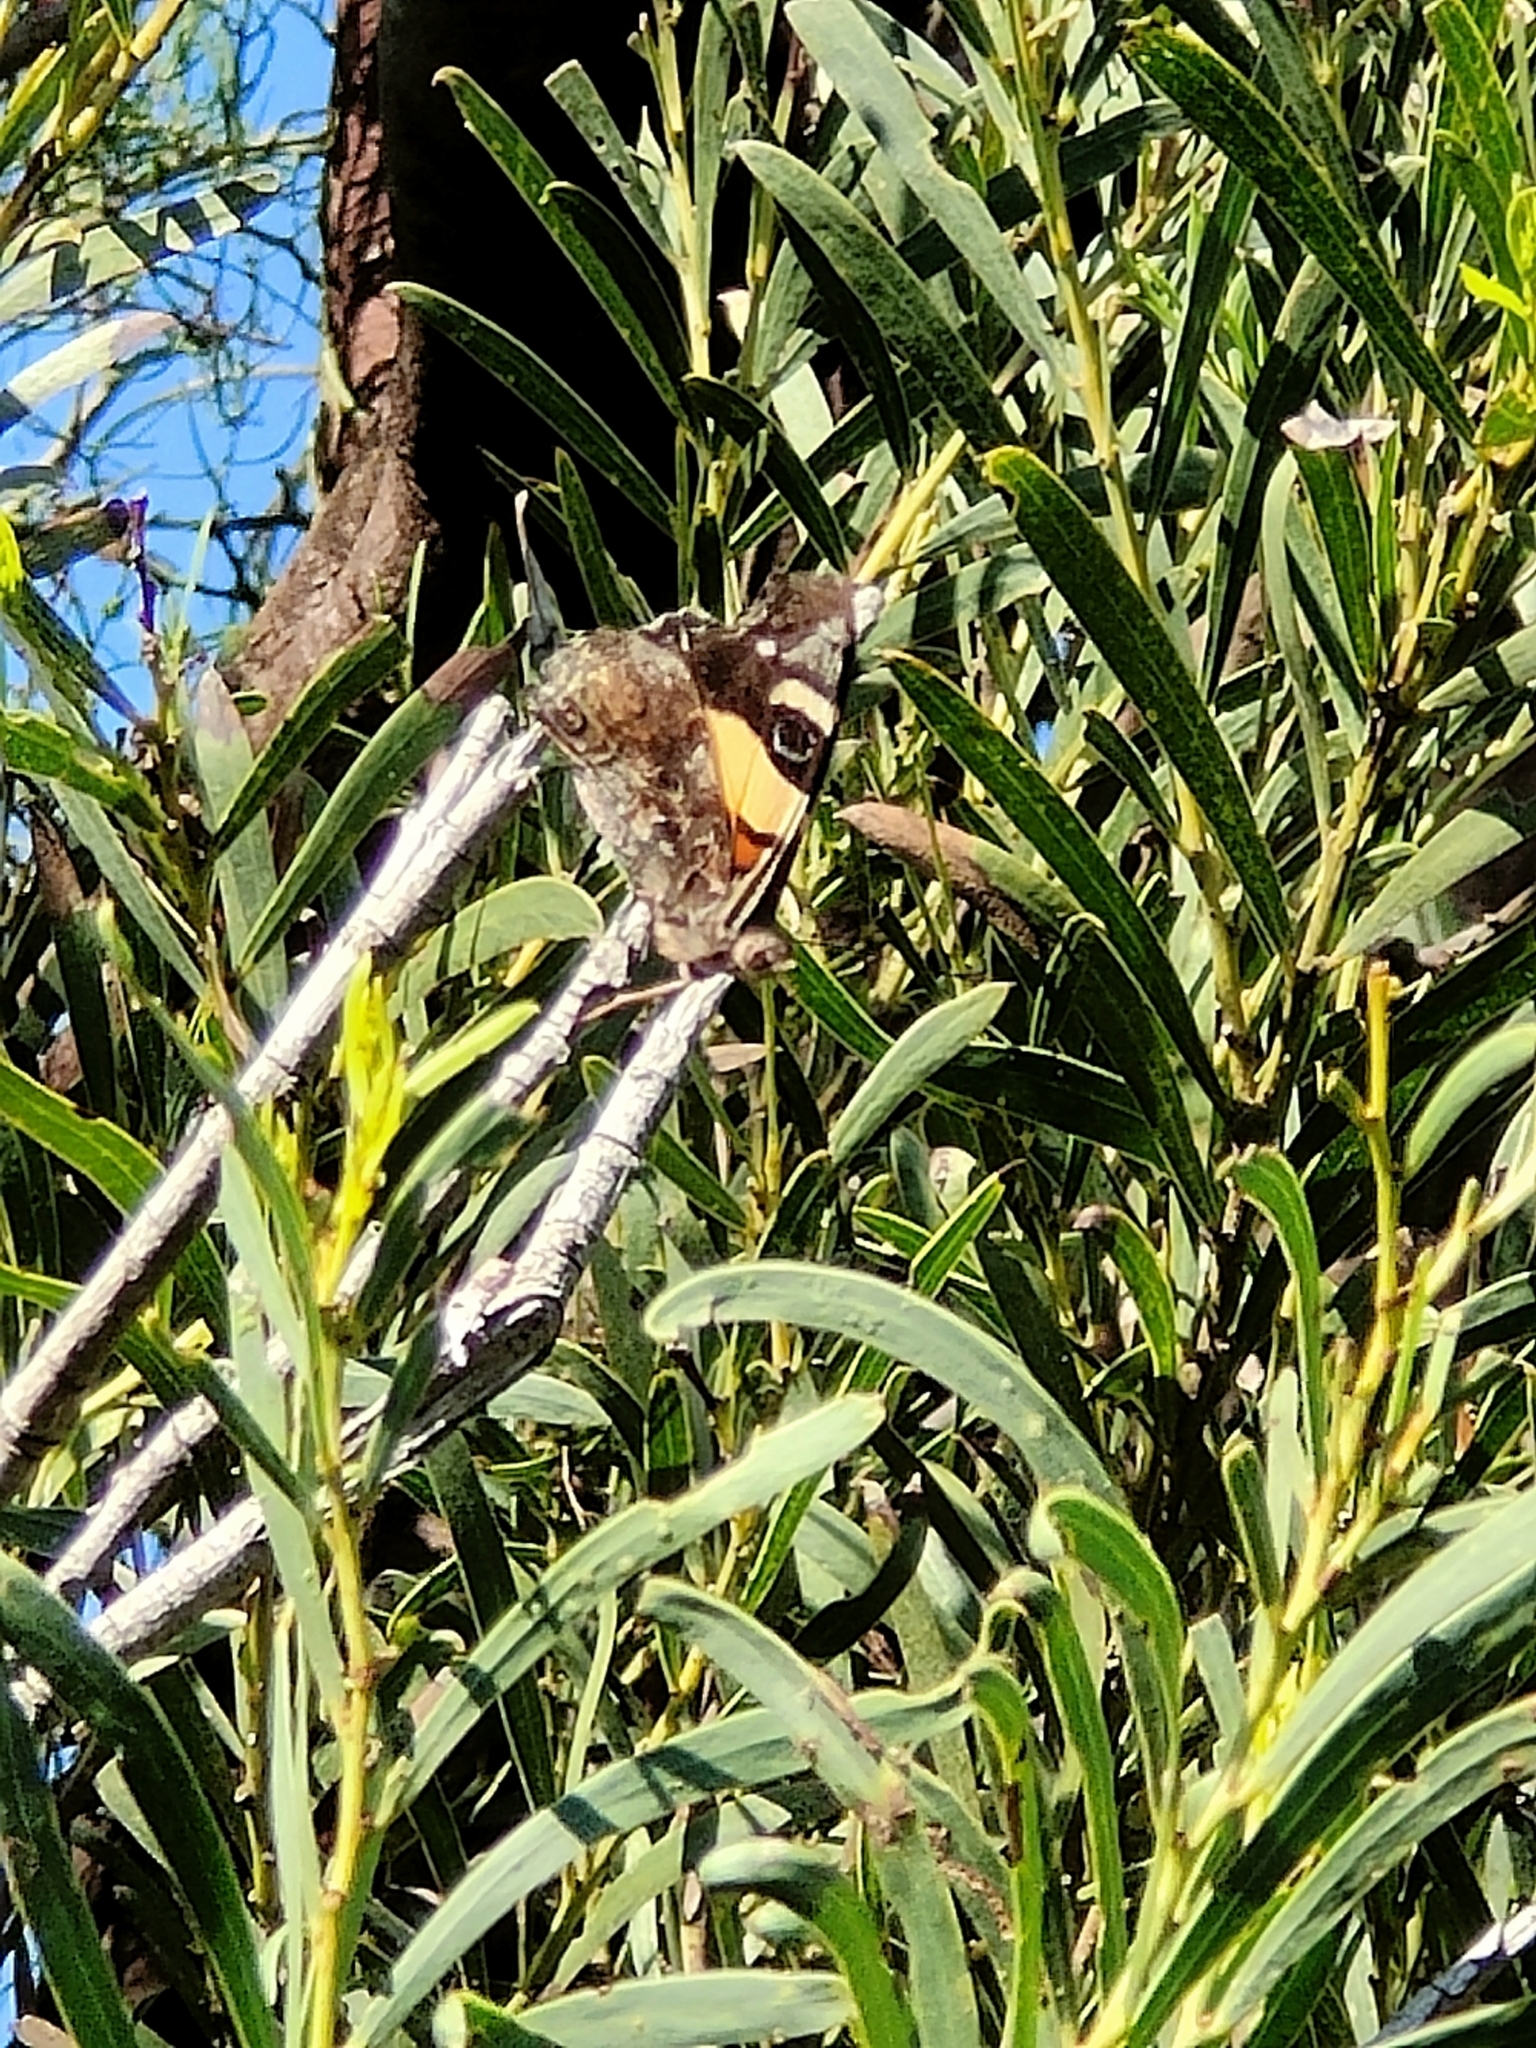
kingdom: Animalia
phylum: Arthropoda
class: Insecta
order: Lepidoptera
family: Nymphalidae
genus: Vanessa
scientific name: Vanessa itea
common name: Yellow admiral
